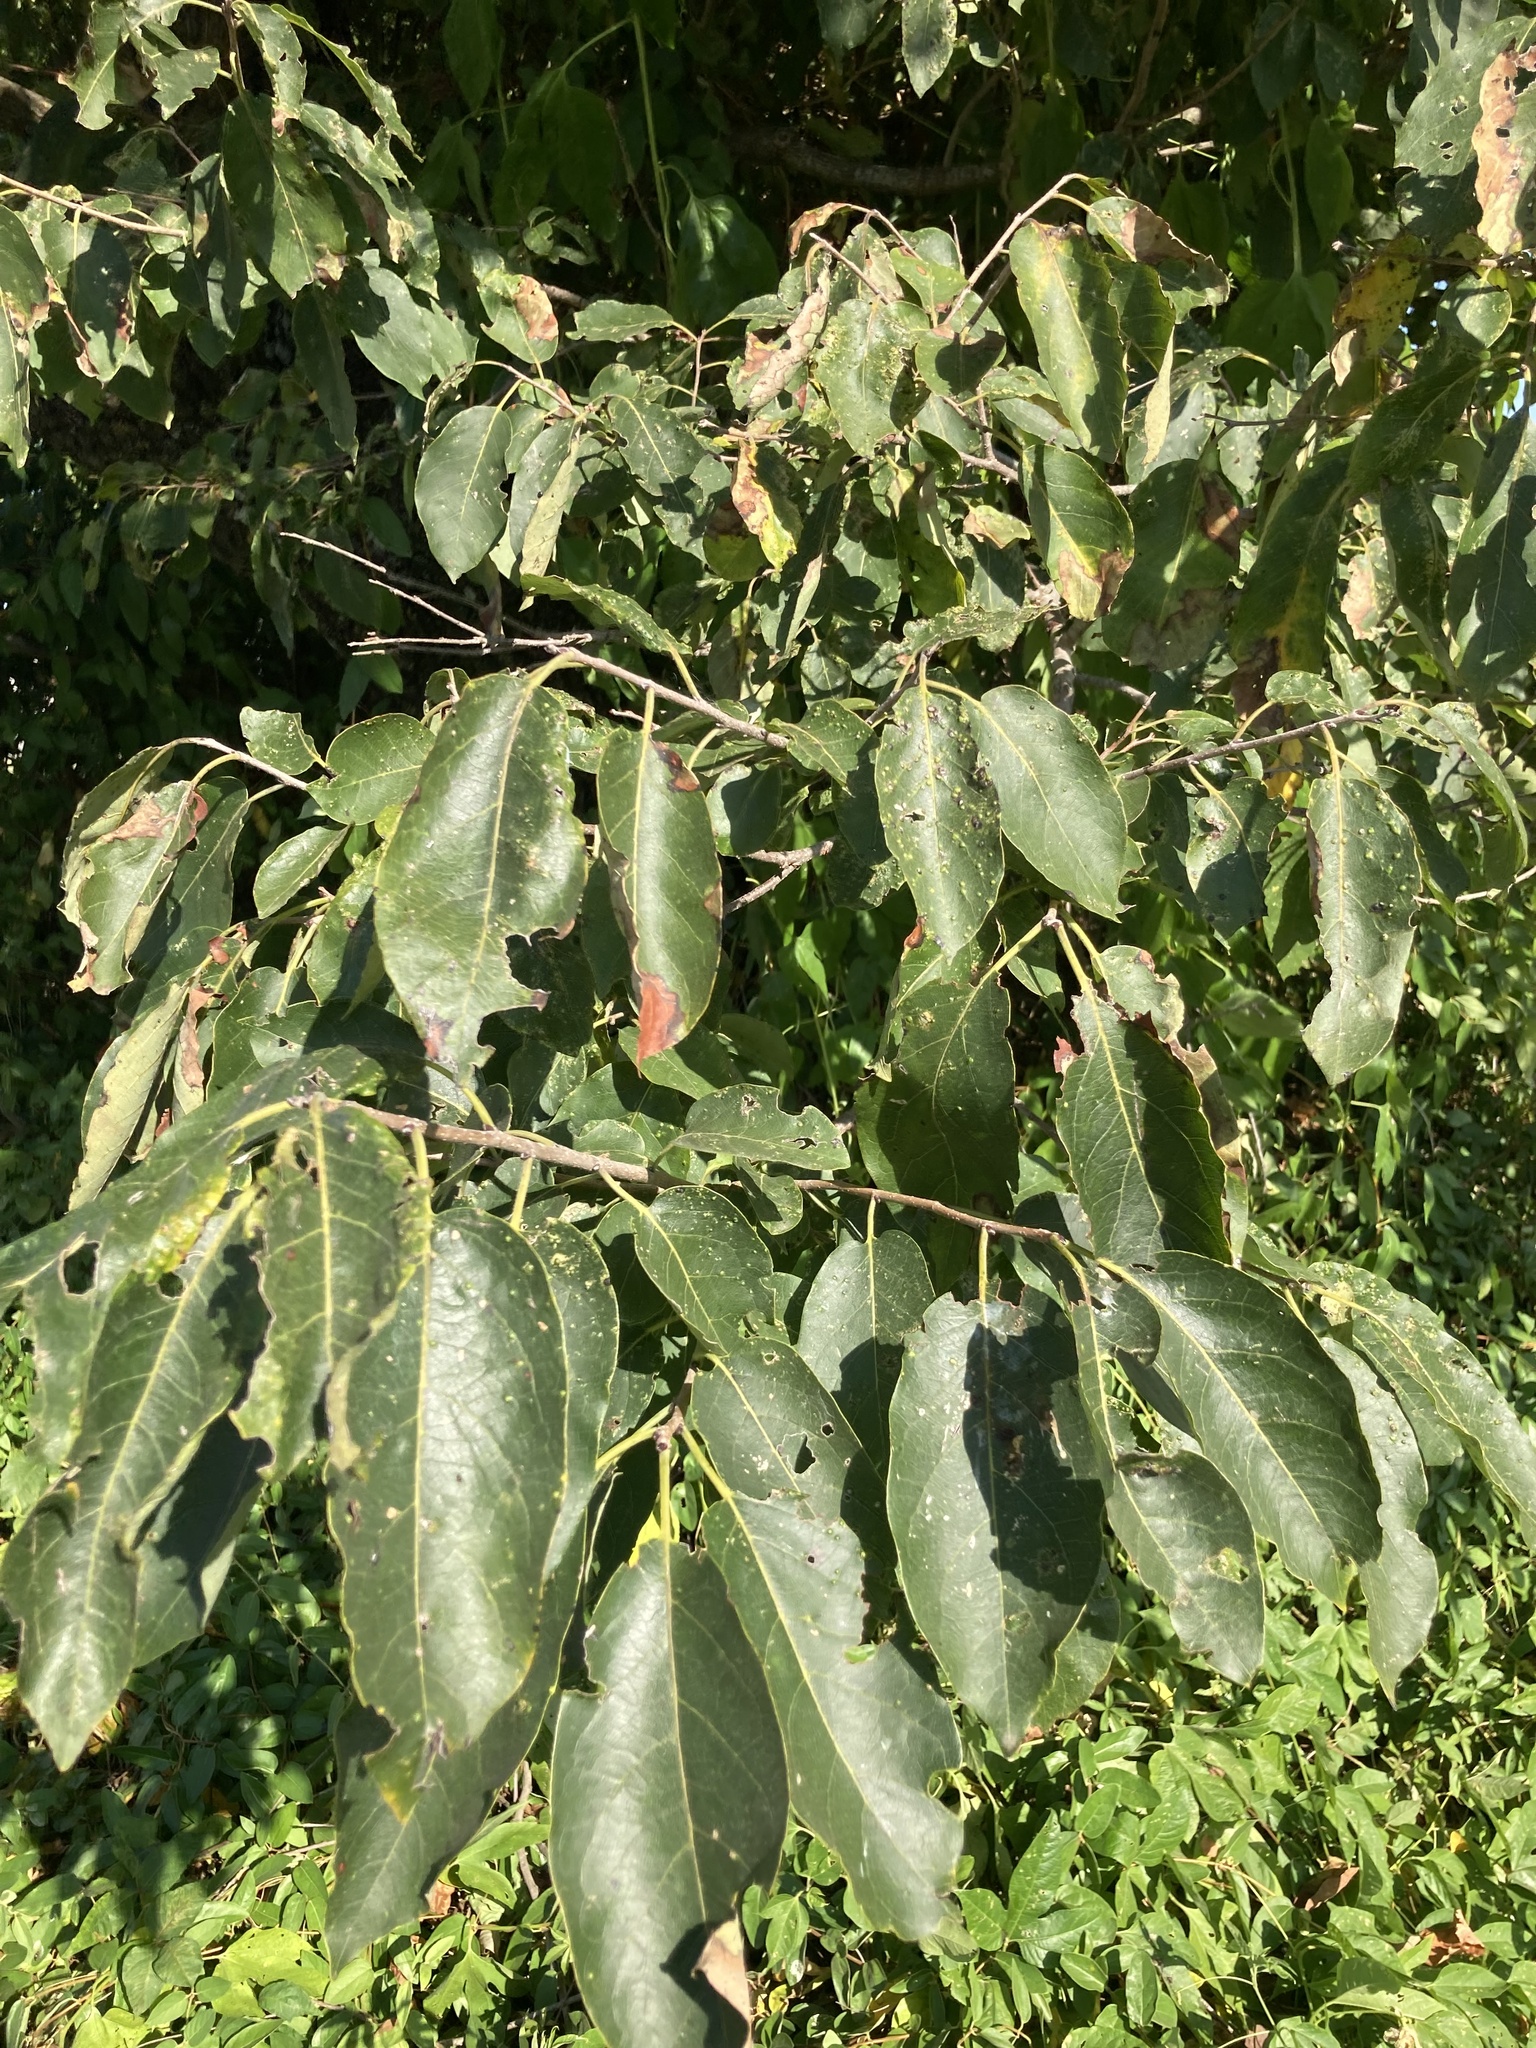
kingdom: Plantae
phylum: Tracheophyta
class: Magnoliopsida
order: Ericales
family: Ebenaceae
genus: Diospyros
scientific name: Diospyros virginiana
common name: Persimmon
